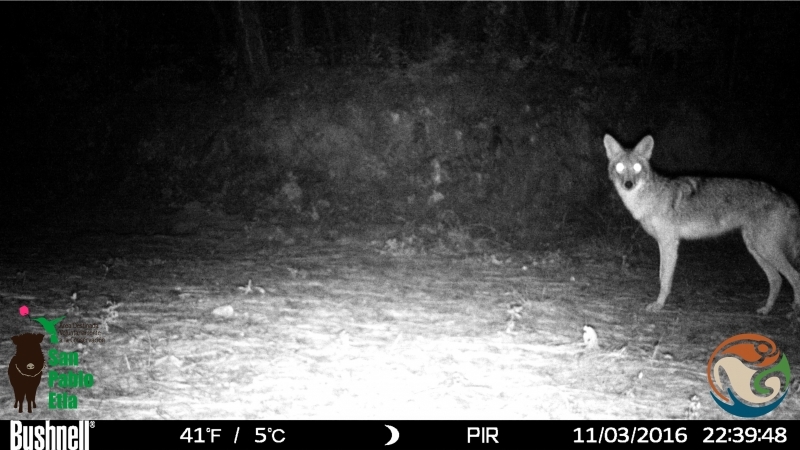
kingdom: Animalia
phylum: Chordata
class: Mammalia
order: Carnivora
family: Canidae
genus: Canis
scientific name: Canis latrans
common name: Coyote
